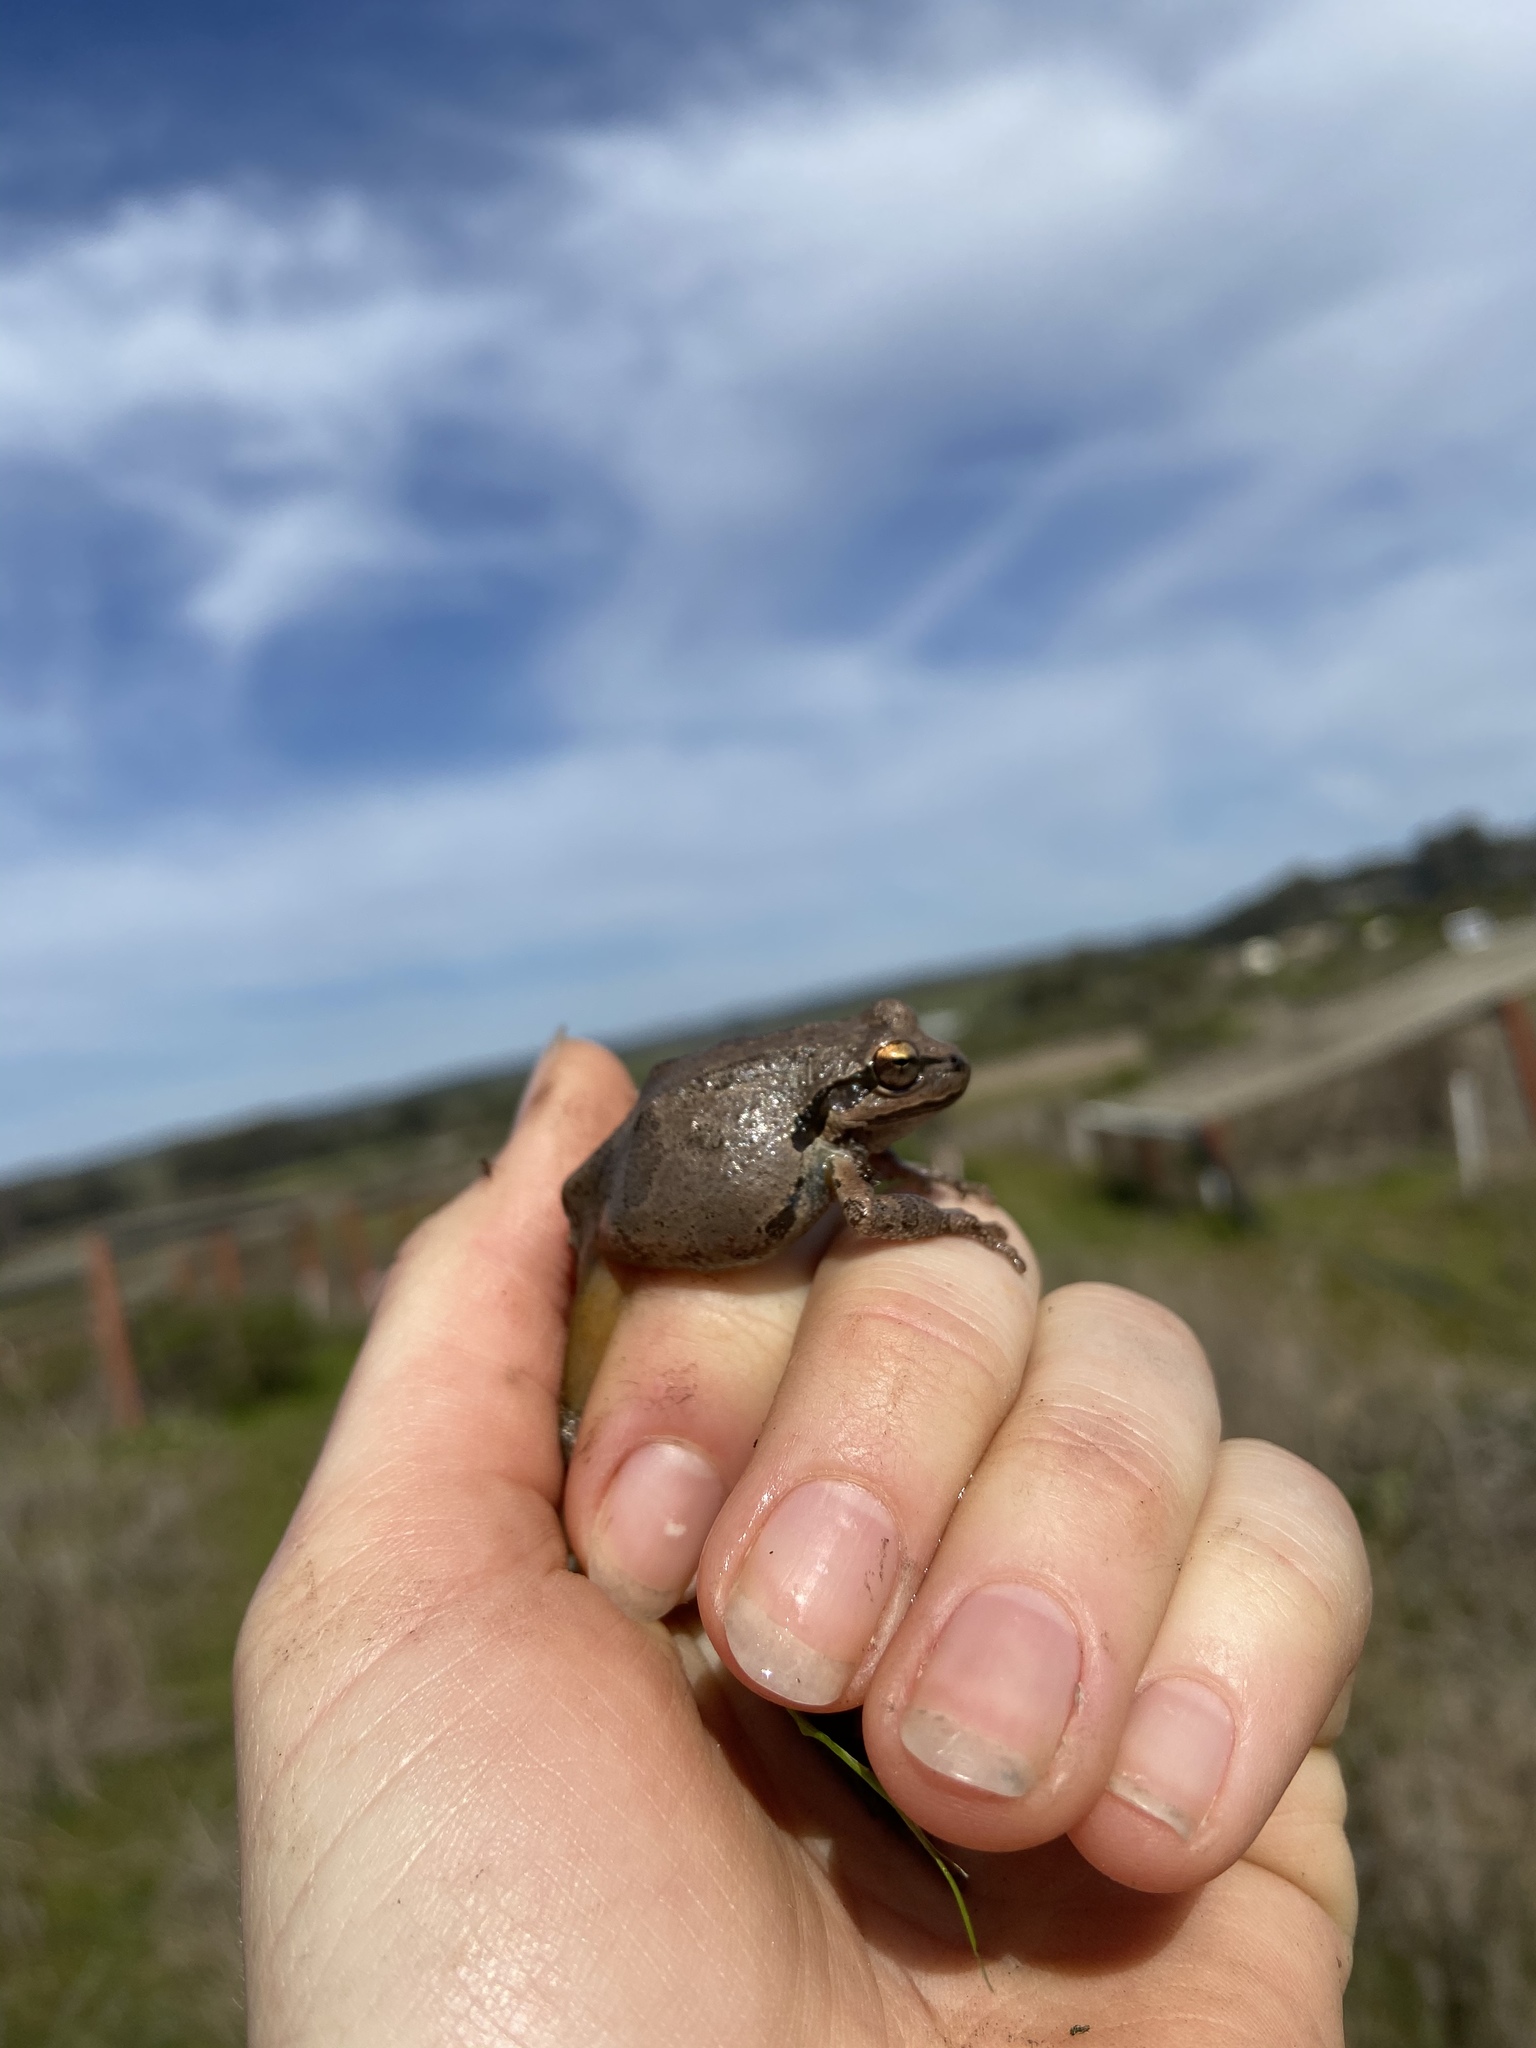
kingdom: Animalia
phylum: Chordata
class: Amphibia
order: Anura
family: Hylidae
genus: Pseudacris
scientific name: Pseudacris regilla
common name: Pacific chorus frog
